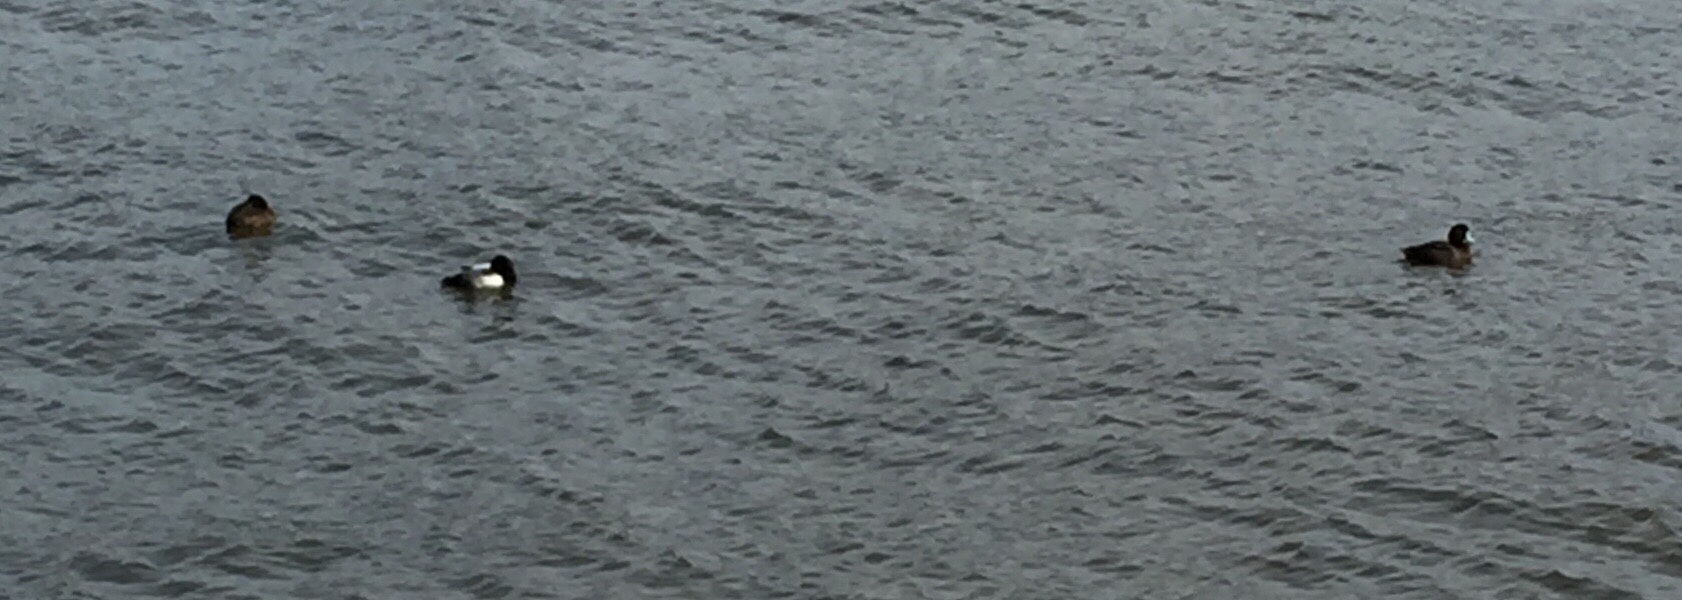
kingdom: Animalia
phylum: Chordata
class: Aves
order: Anseriformes
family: Anatidae
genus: Aythya
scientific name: Aythya affinis
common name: Lesser scaup
